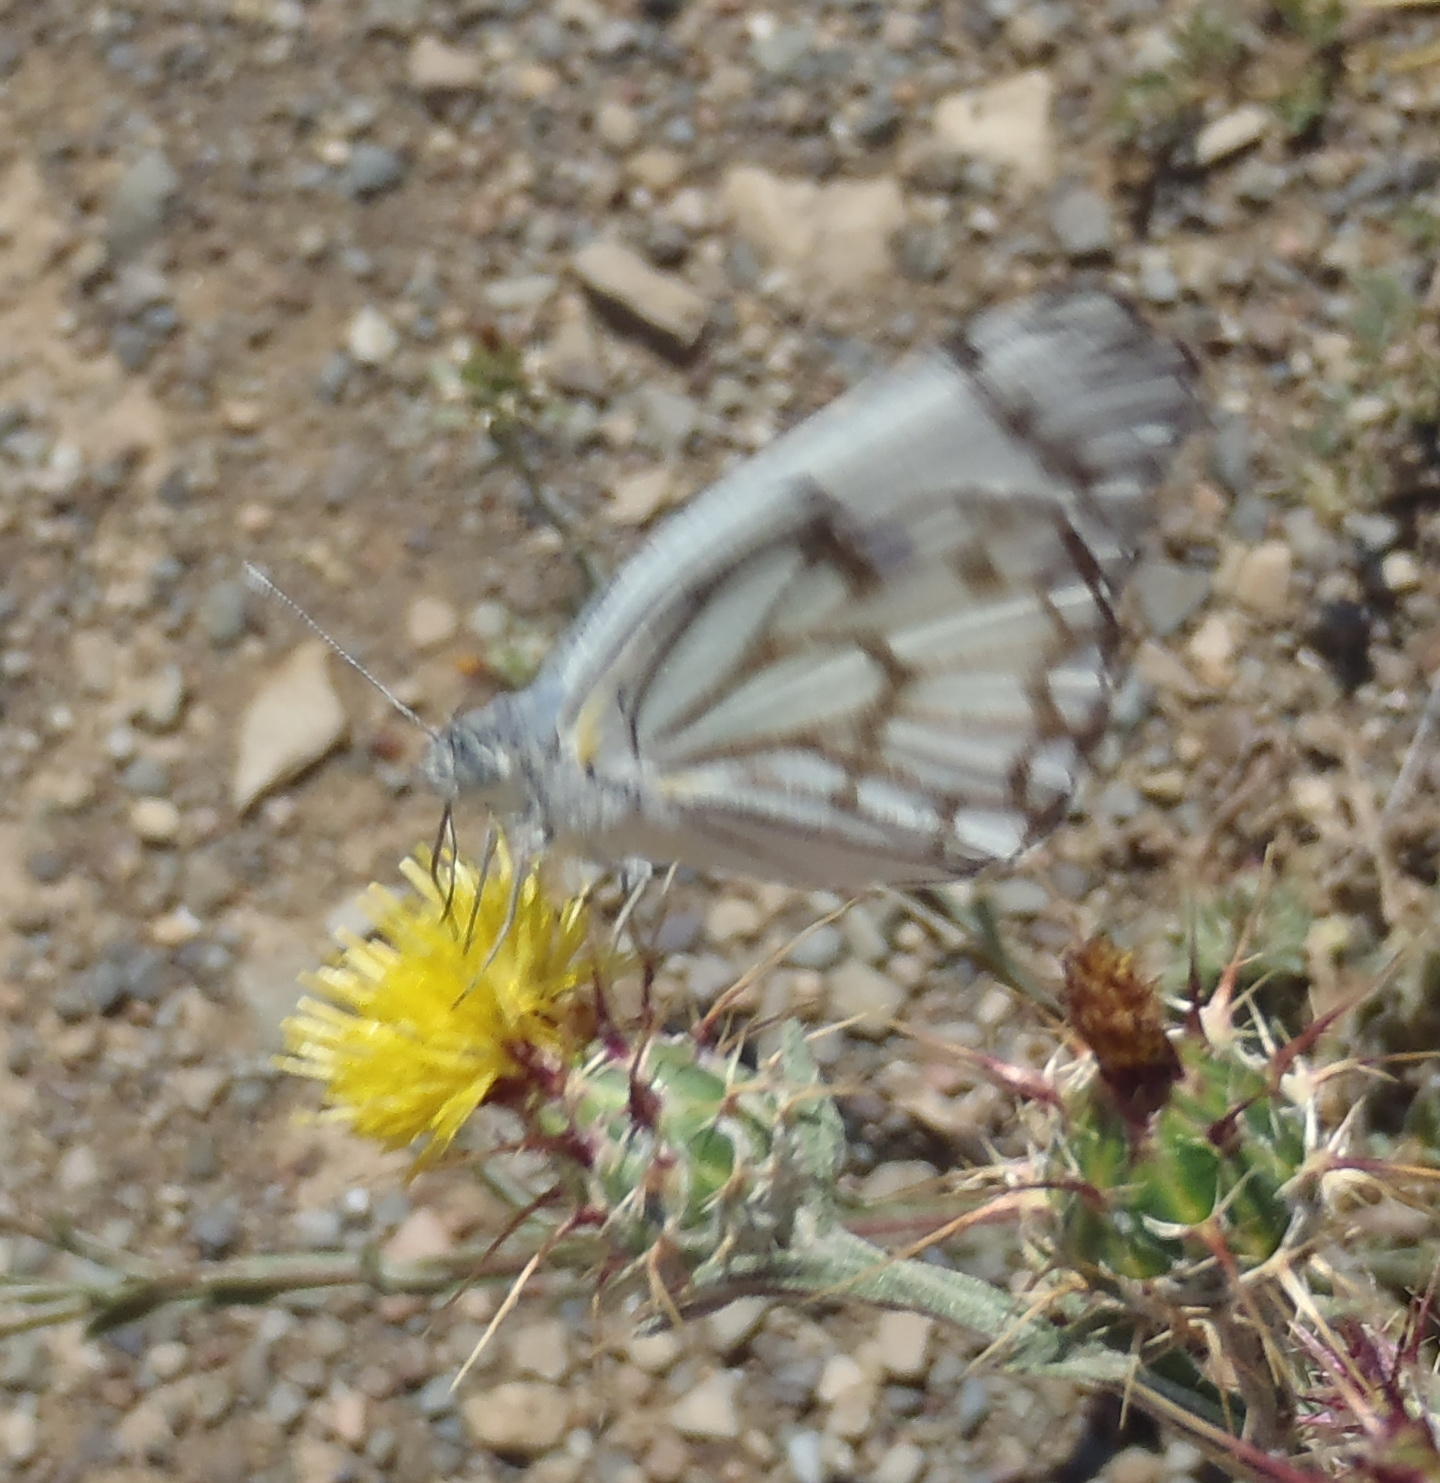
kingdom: Animalia
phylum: Arthropoda
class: Insecta
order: Lepidoptera
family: Pieridae
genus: Belenois
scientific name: Belenois aurota
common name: Brown-veined white
